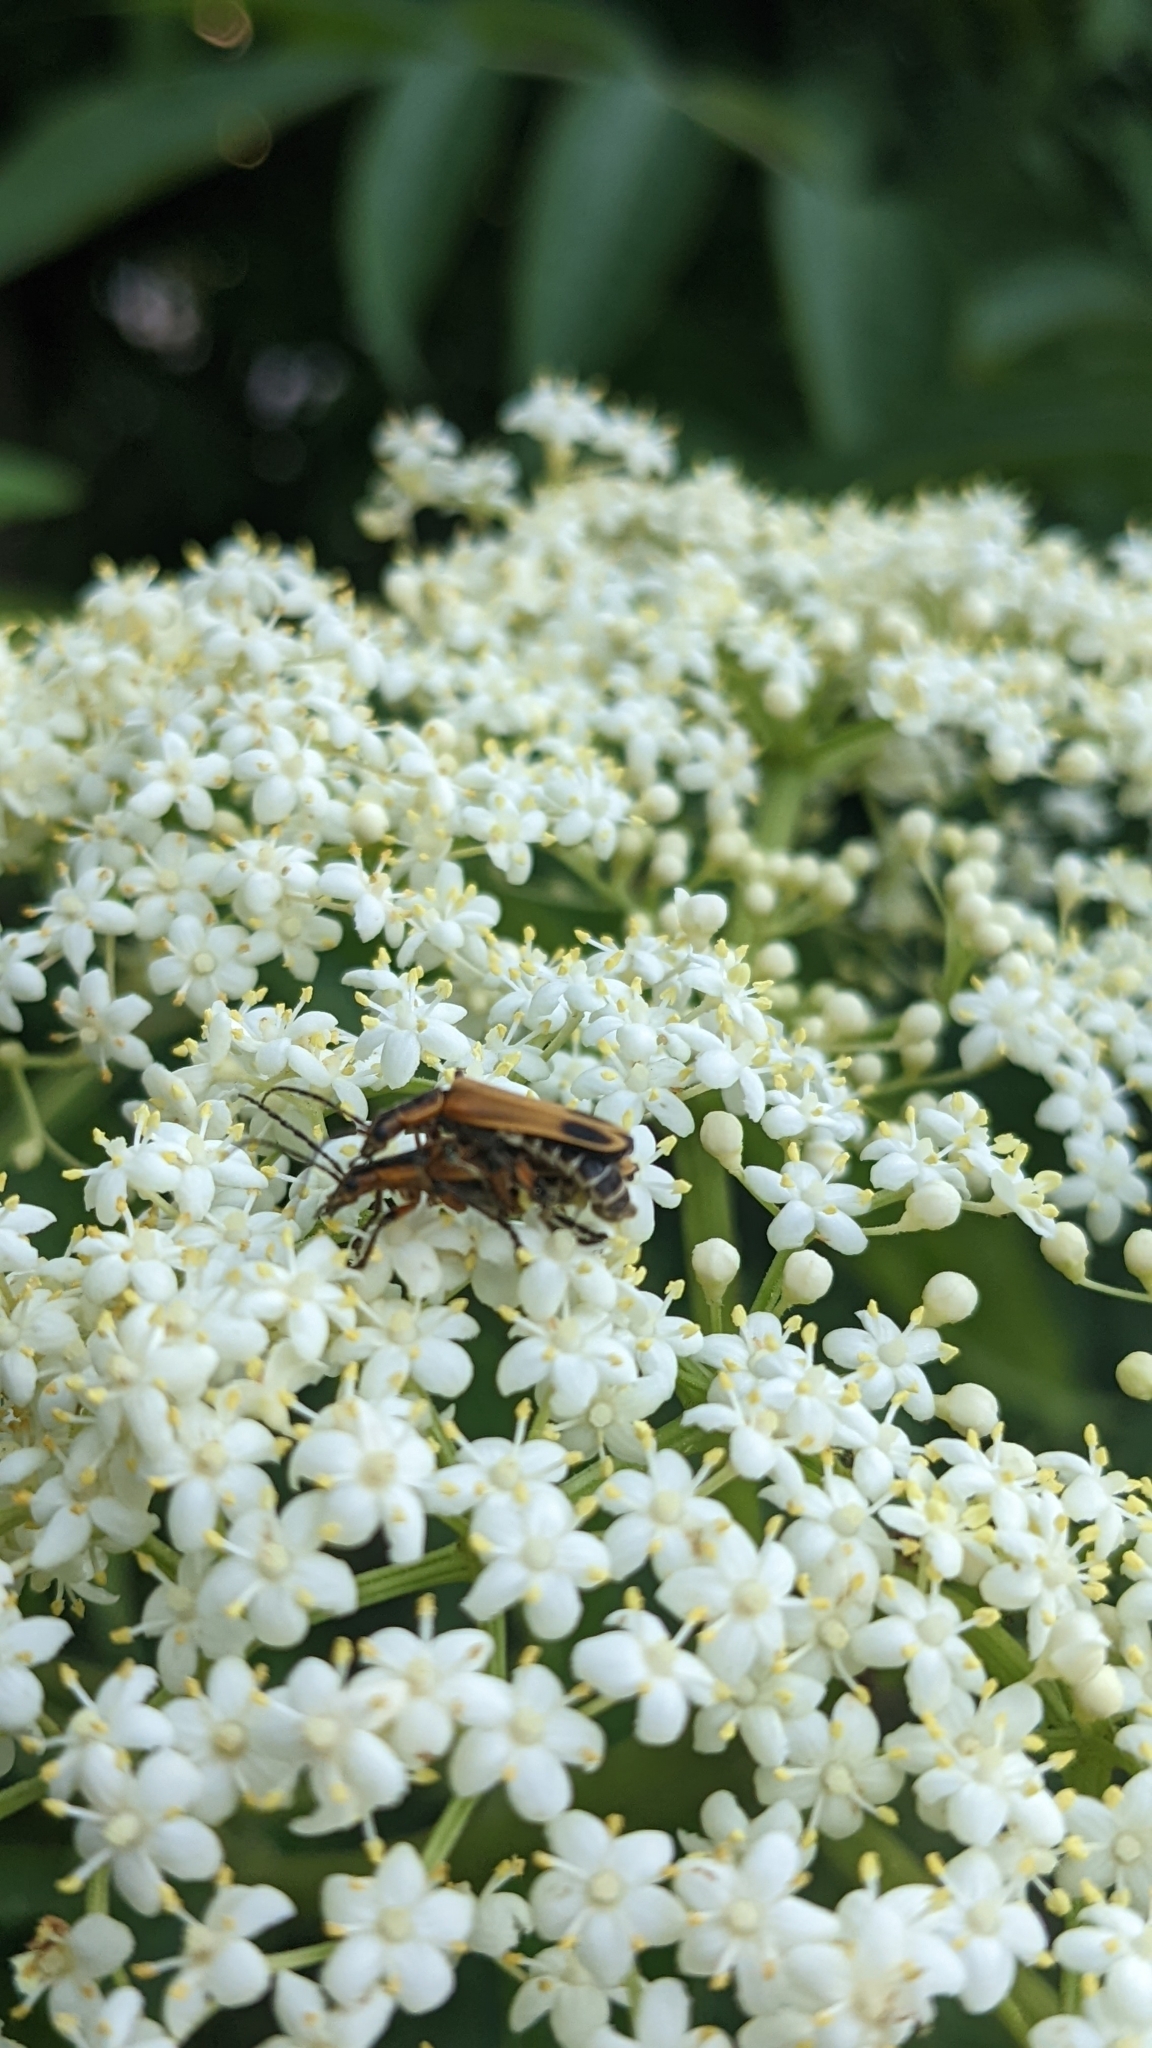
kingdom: Animalia
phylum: Arthropoda
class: Insecta
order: Coleoptera
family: Cantharidae
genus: Chauliognathus
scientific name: Chauliognathus marginatus
